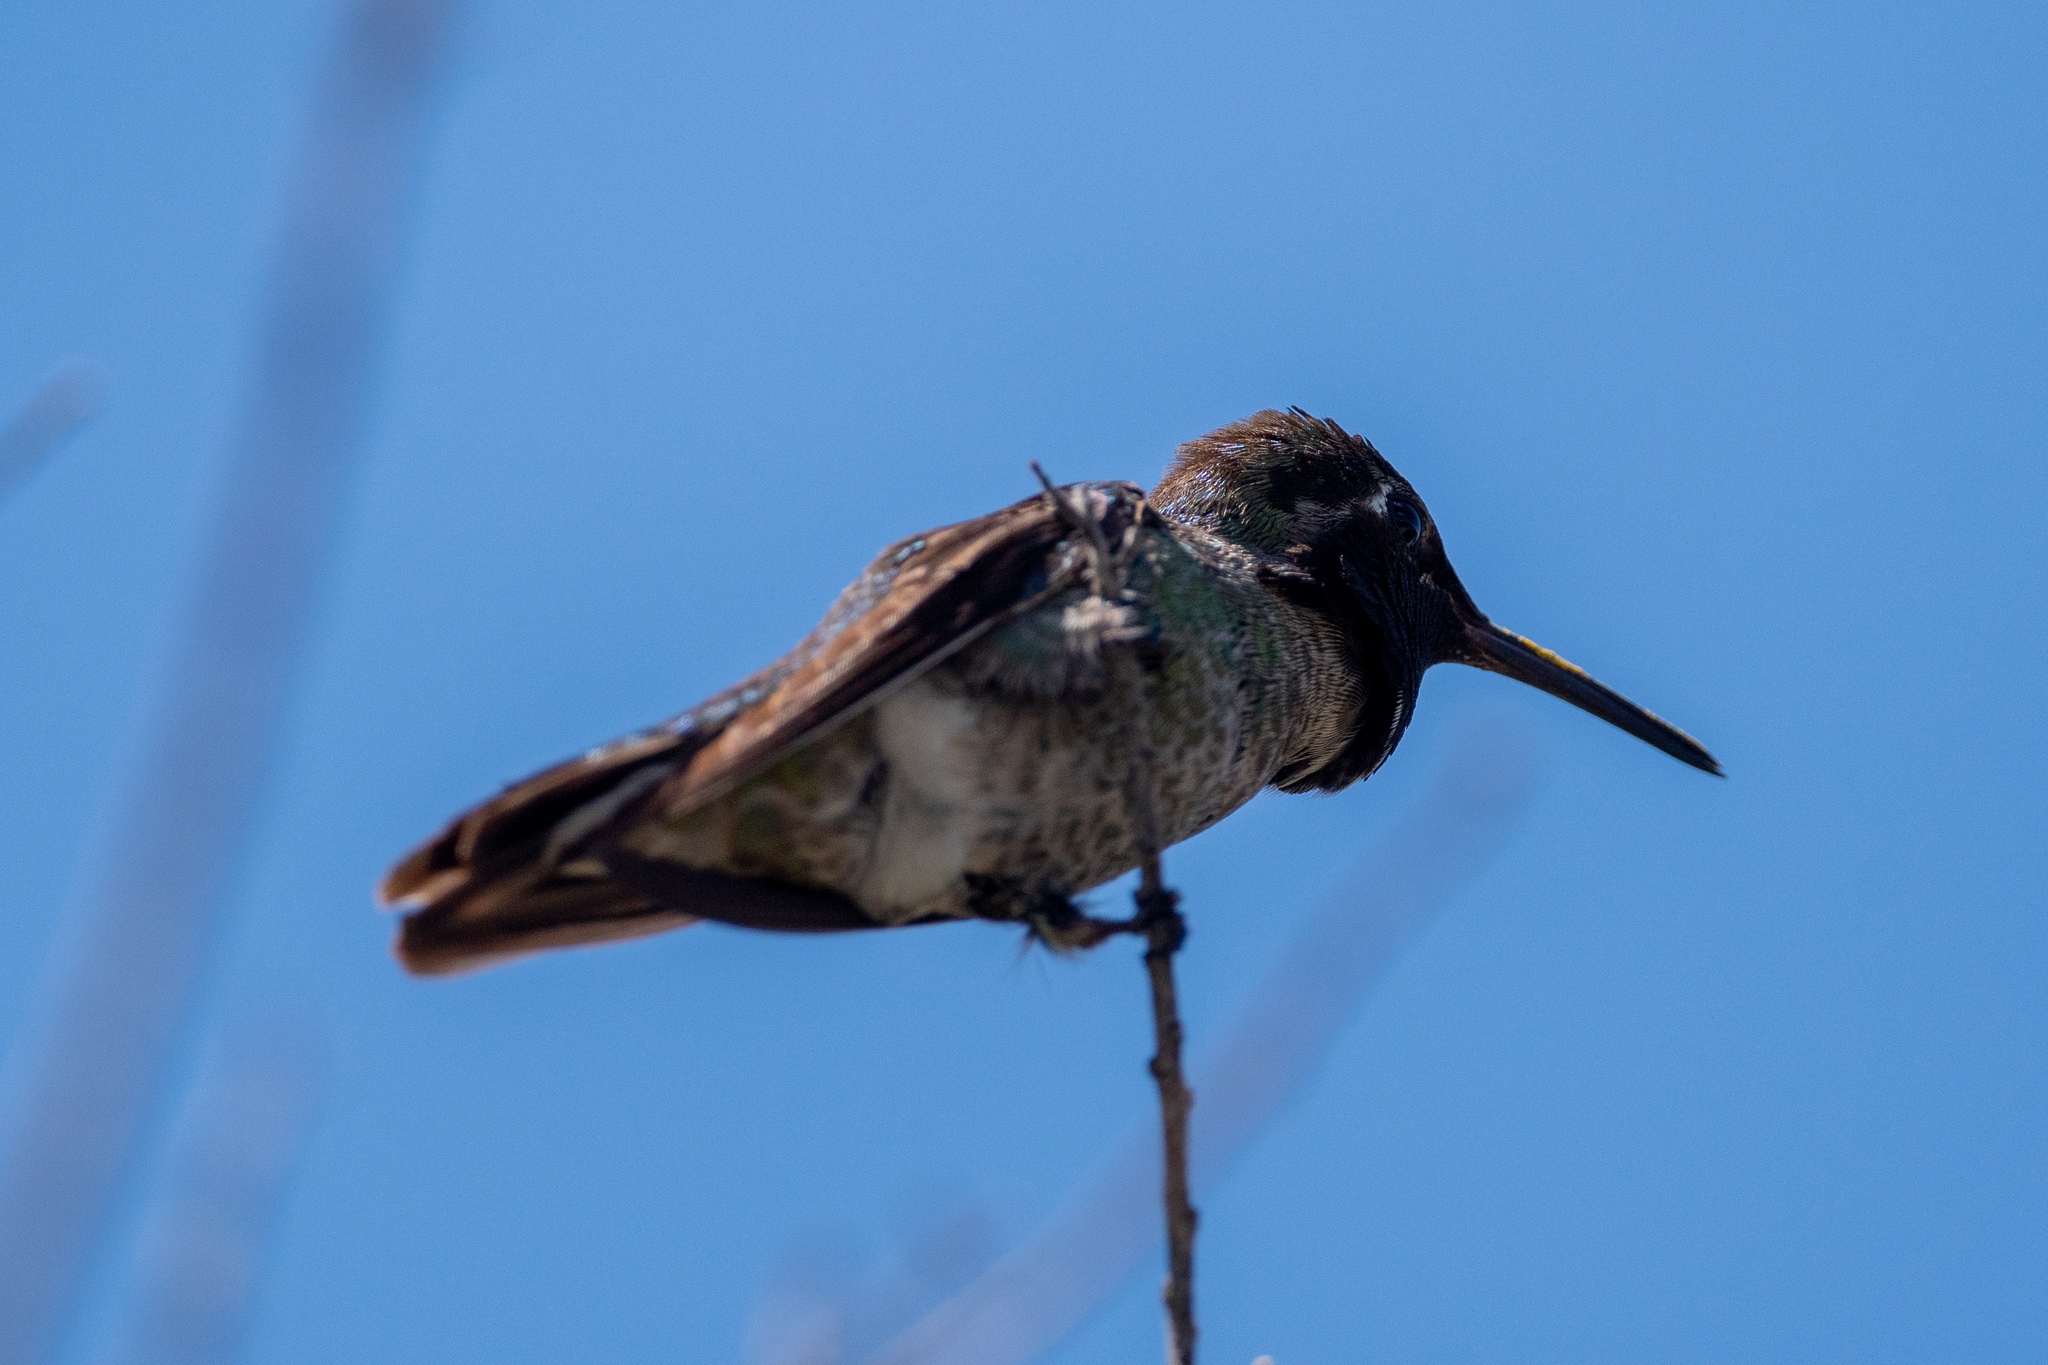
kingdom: Animalia
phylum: Chordata
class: Aves
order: Apodiformes
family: Trochilidae
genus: Calypte
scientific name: Calypte anna
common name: Anna's hummingbird
